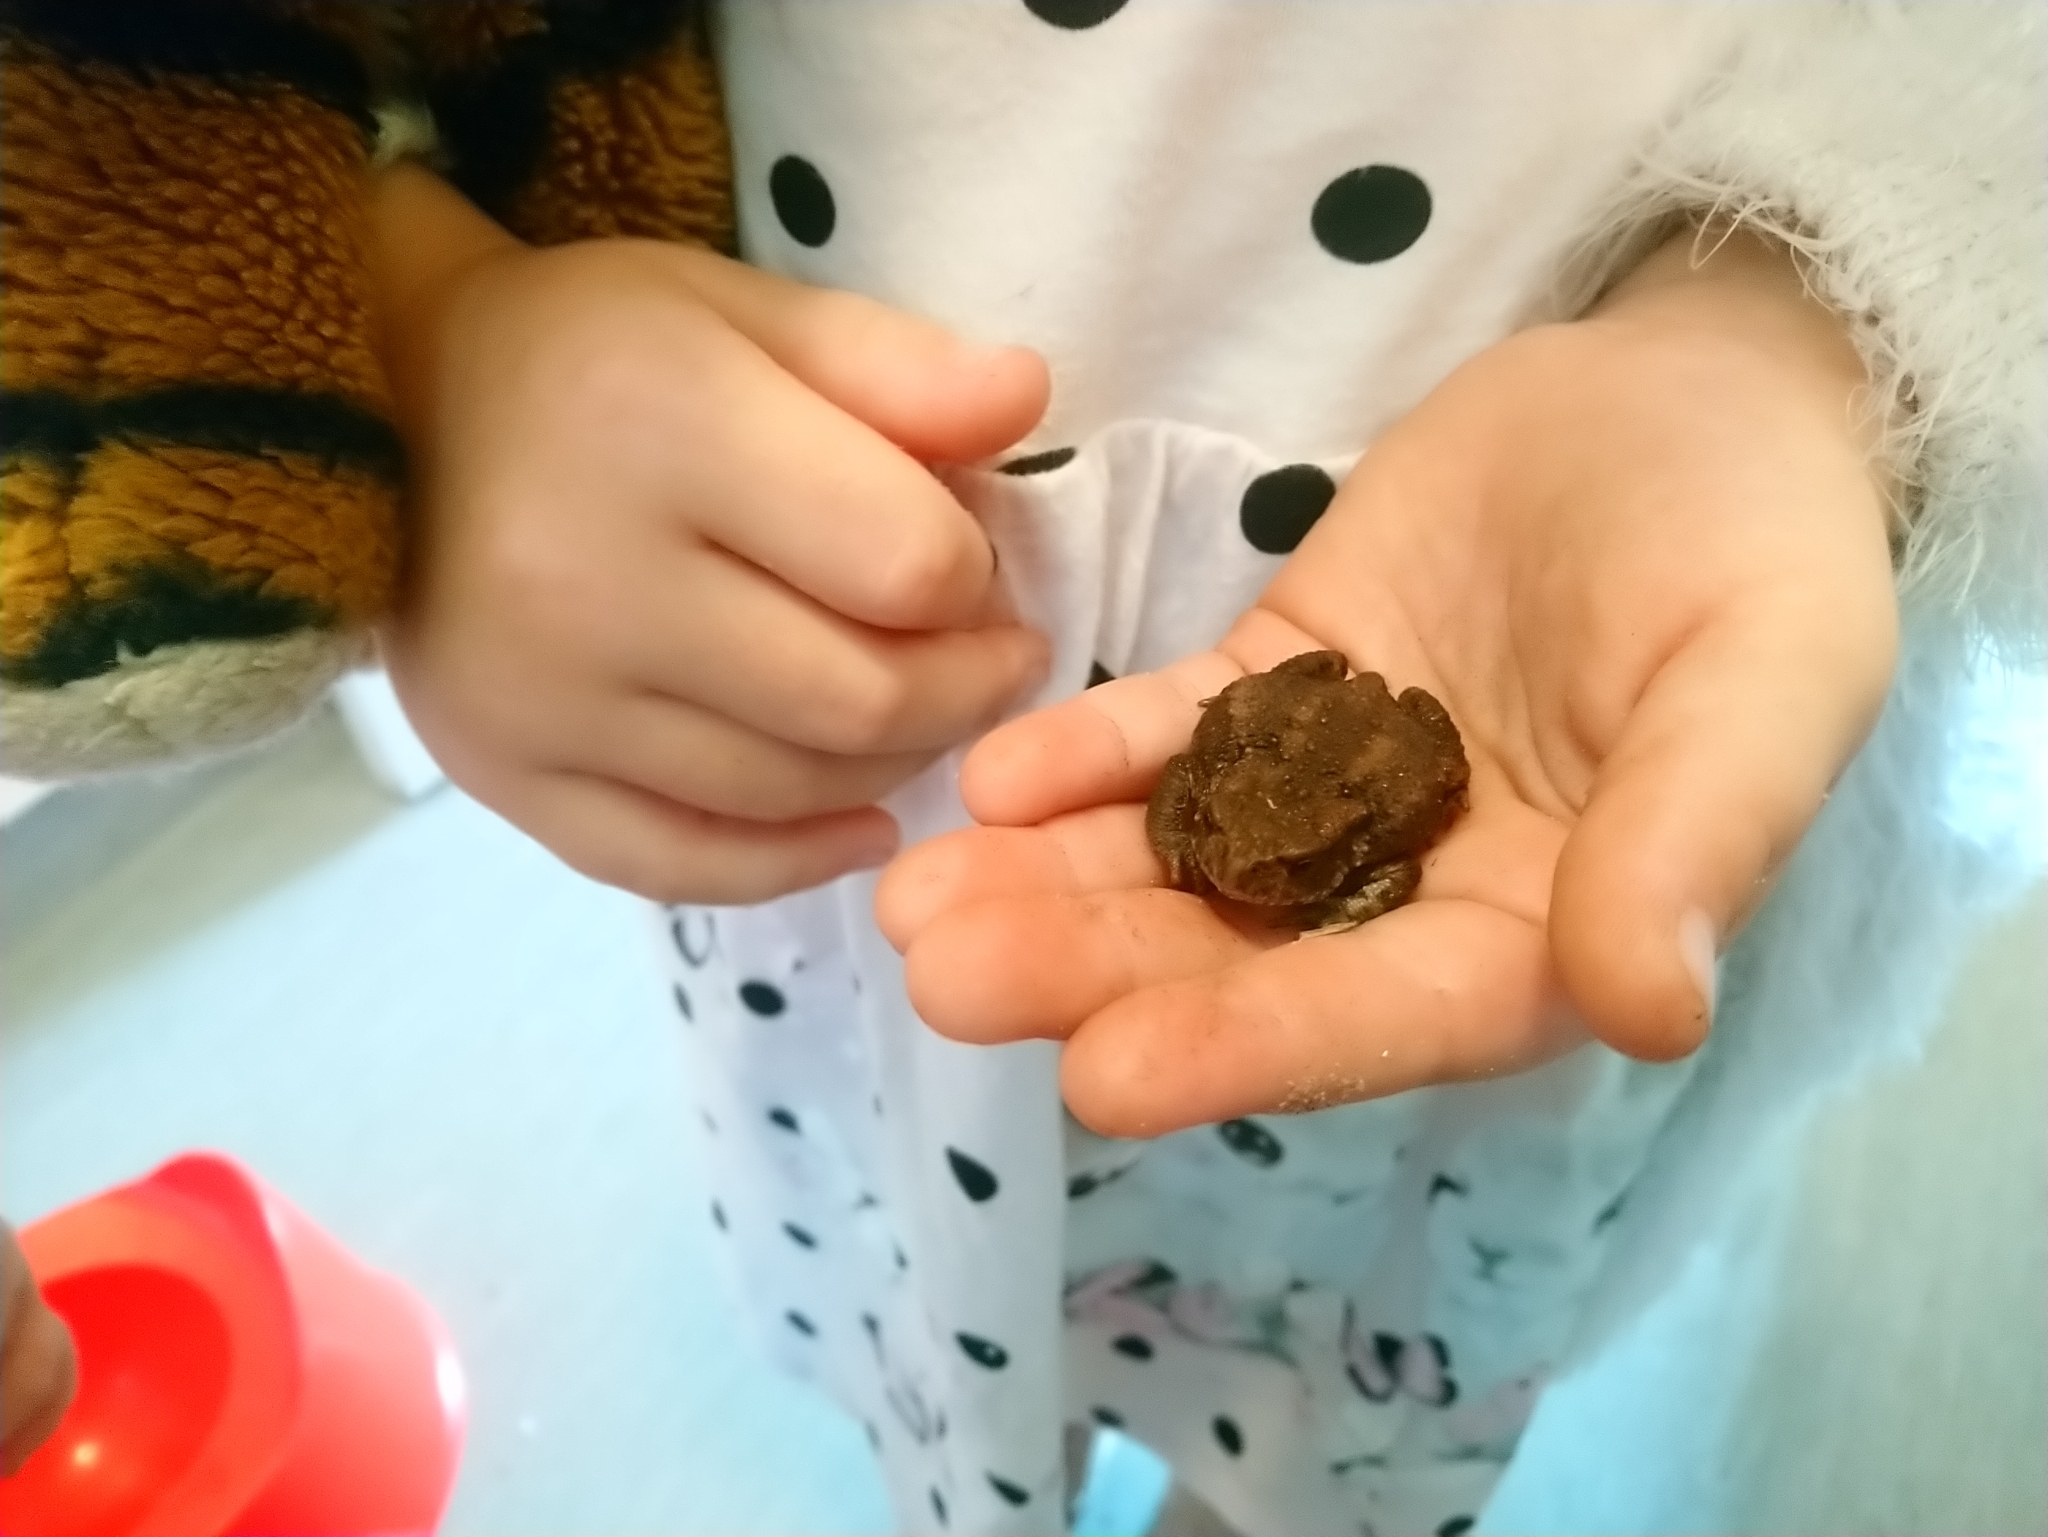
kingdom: Animalia
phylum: Chordata
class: Amphibia
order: Anura
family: Bufonidae
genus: Bufo
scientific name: Bufo bufo
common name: Common toad
